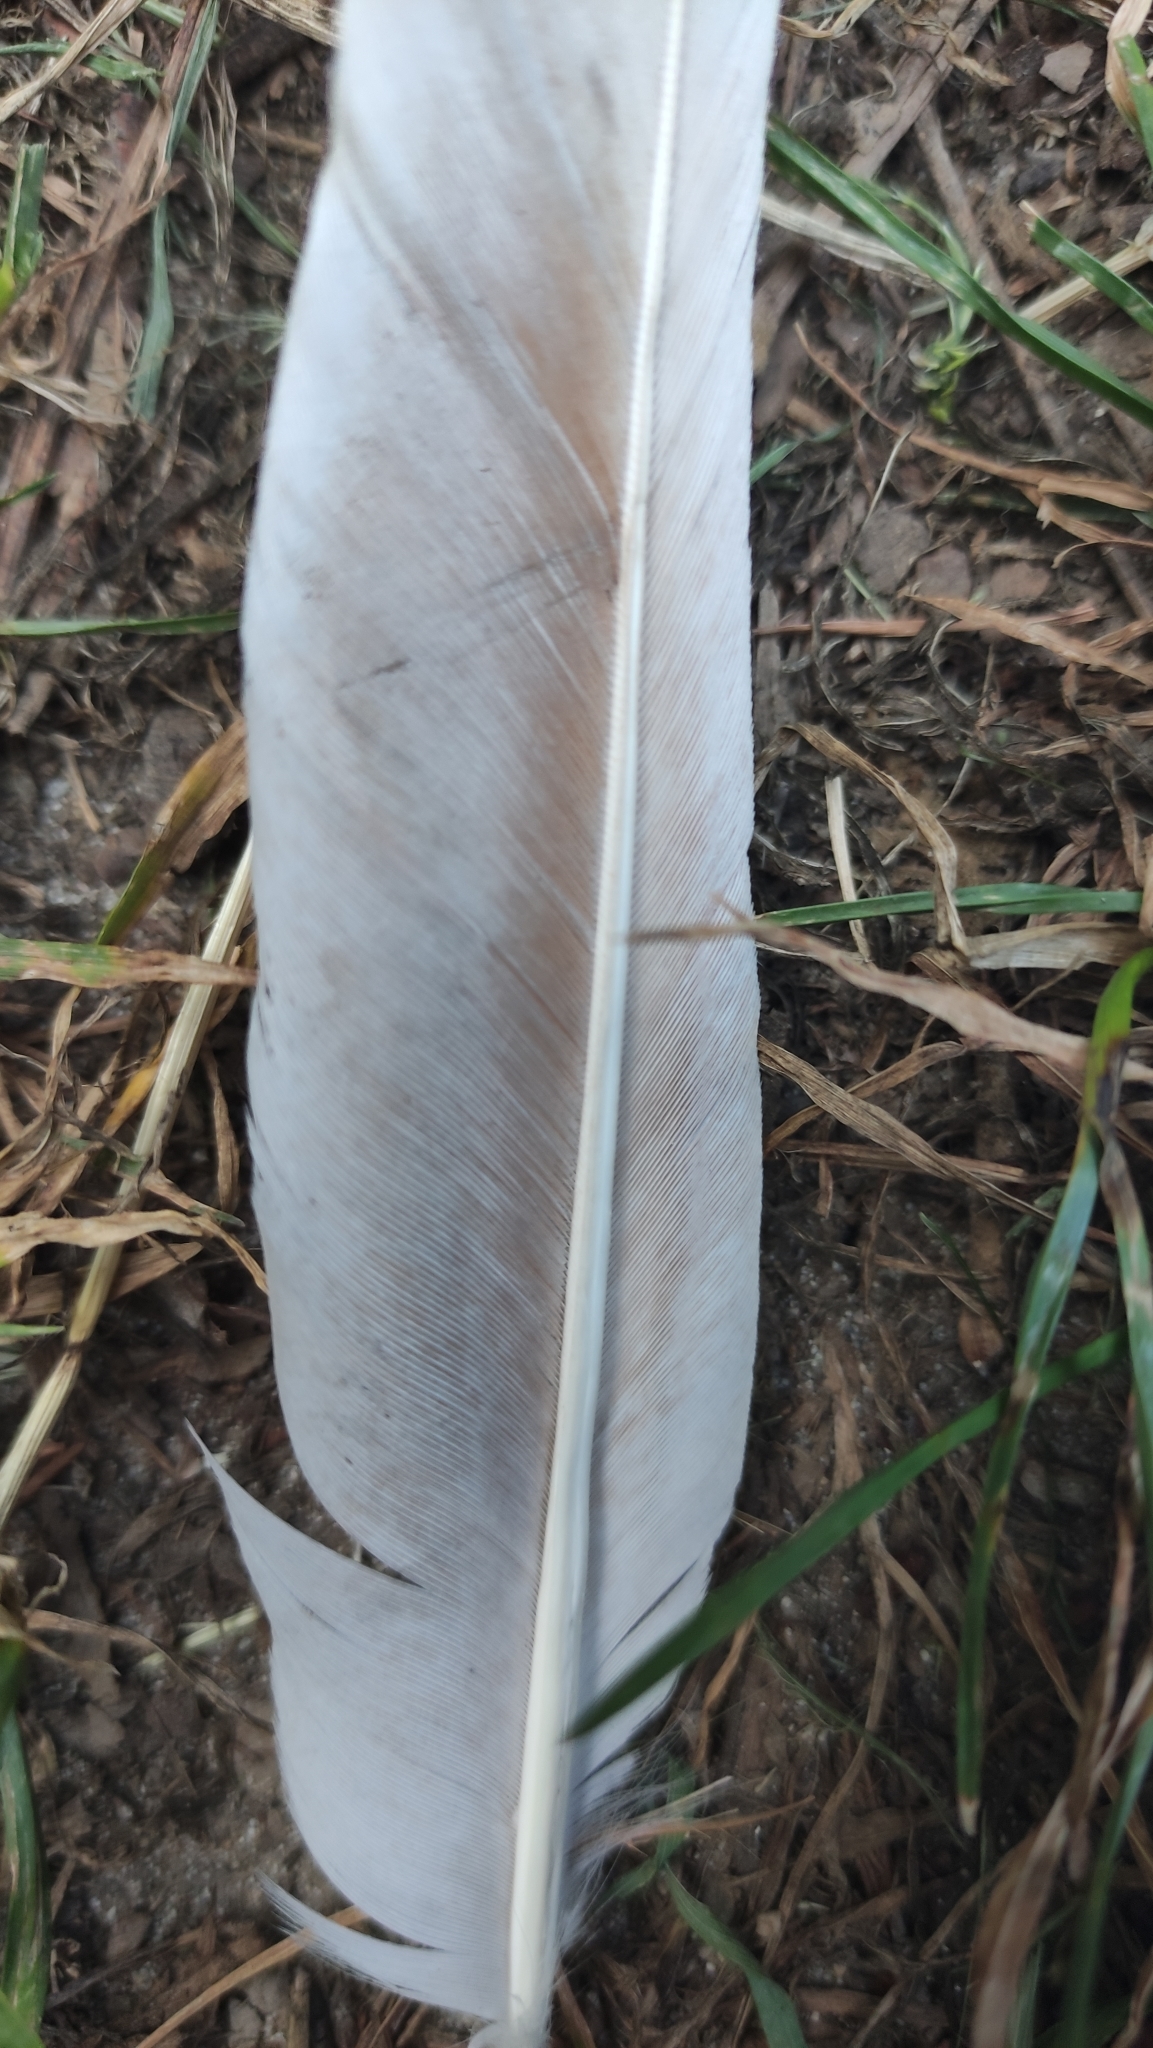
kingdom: Animalia
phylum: Chordata
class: Aves
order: Columbiformes
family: Columbidae
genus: Columba
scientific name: Columba livia
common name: Rock pigeon
